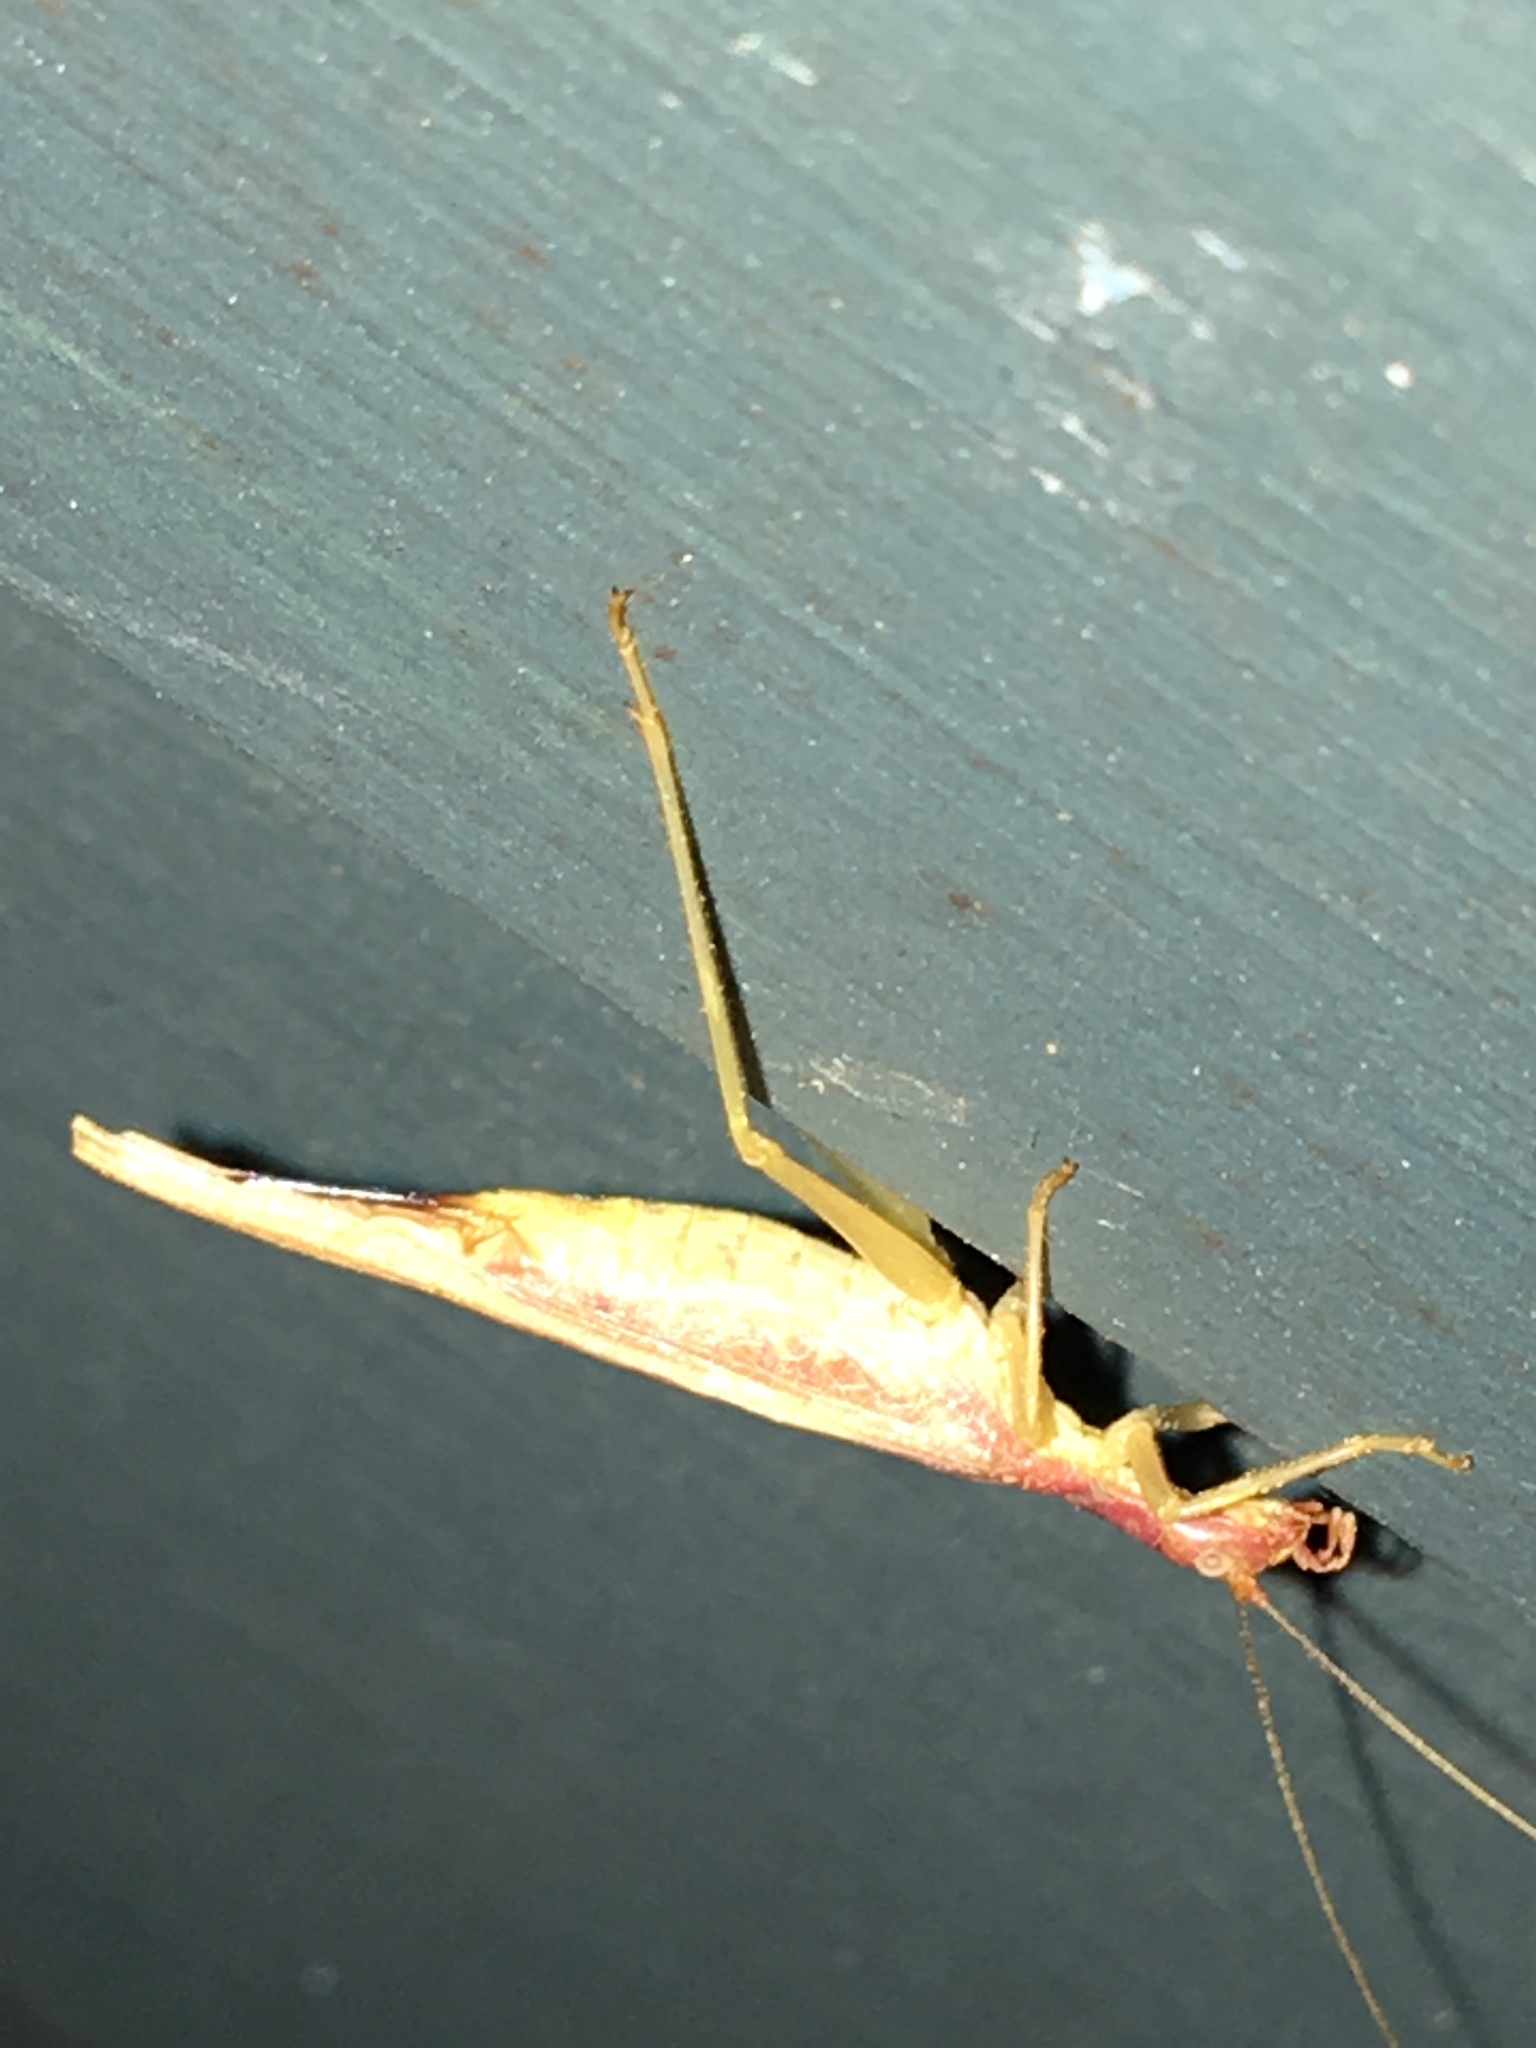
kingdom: Animalia
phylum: Arthropoda
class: Insecta
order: Orthoptera
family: Gryllidae
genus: Neoxabea
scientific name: Neoxabea bipunctata
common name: Two-spotted tree cricket
